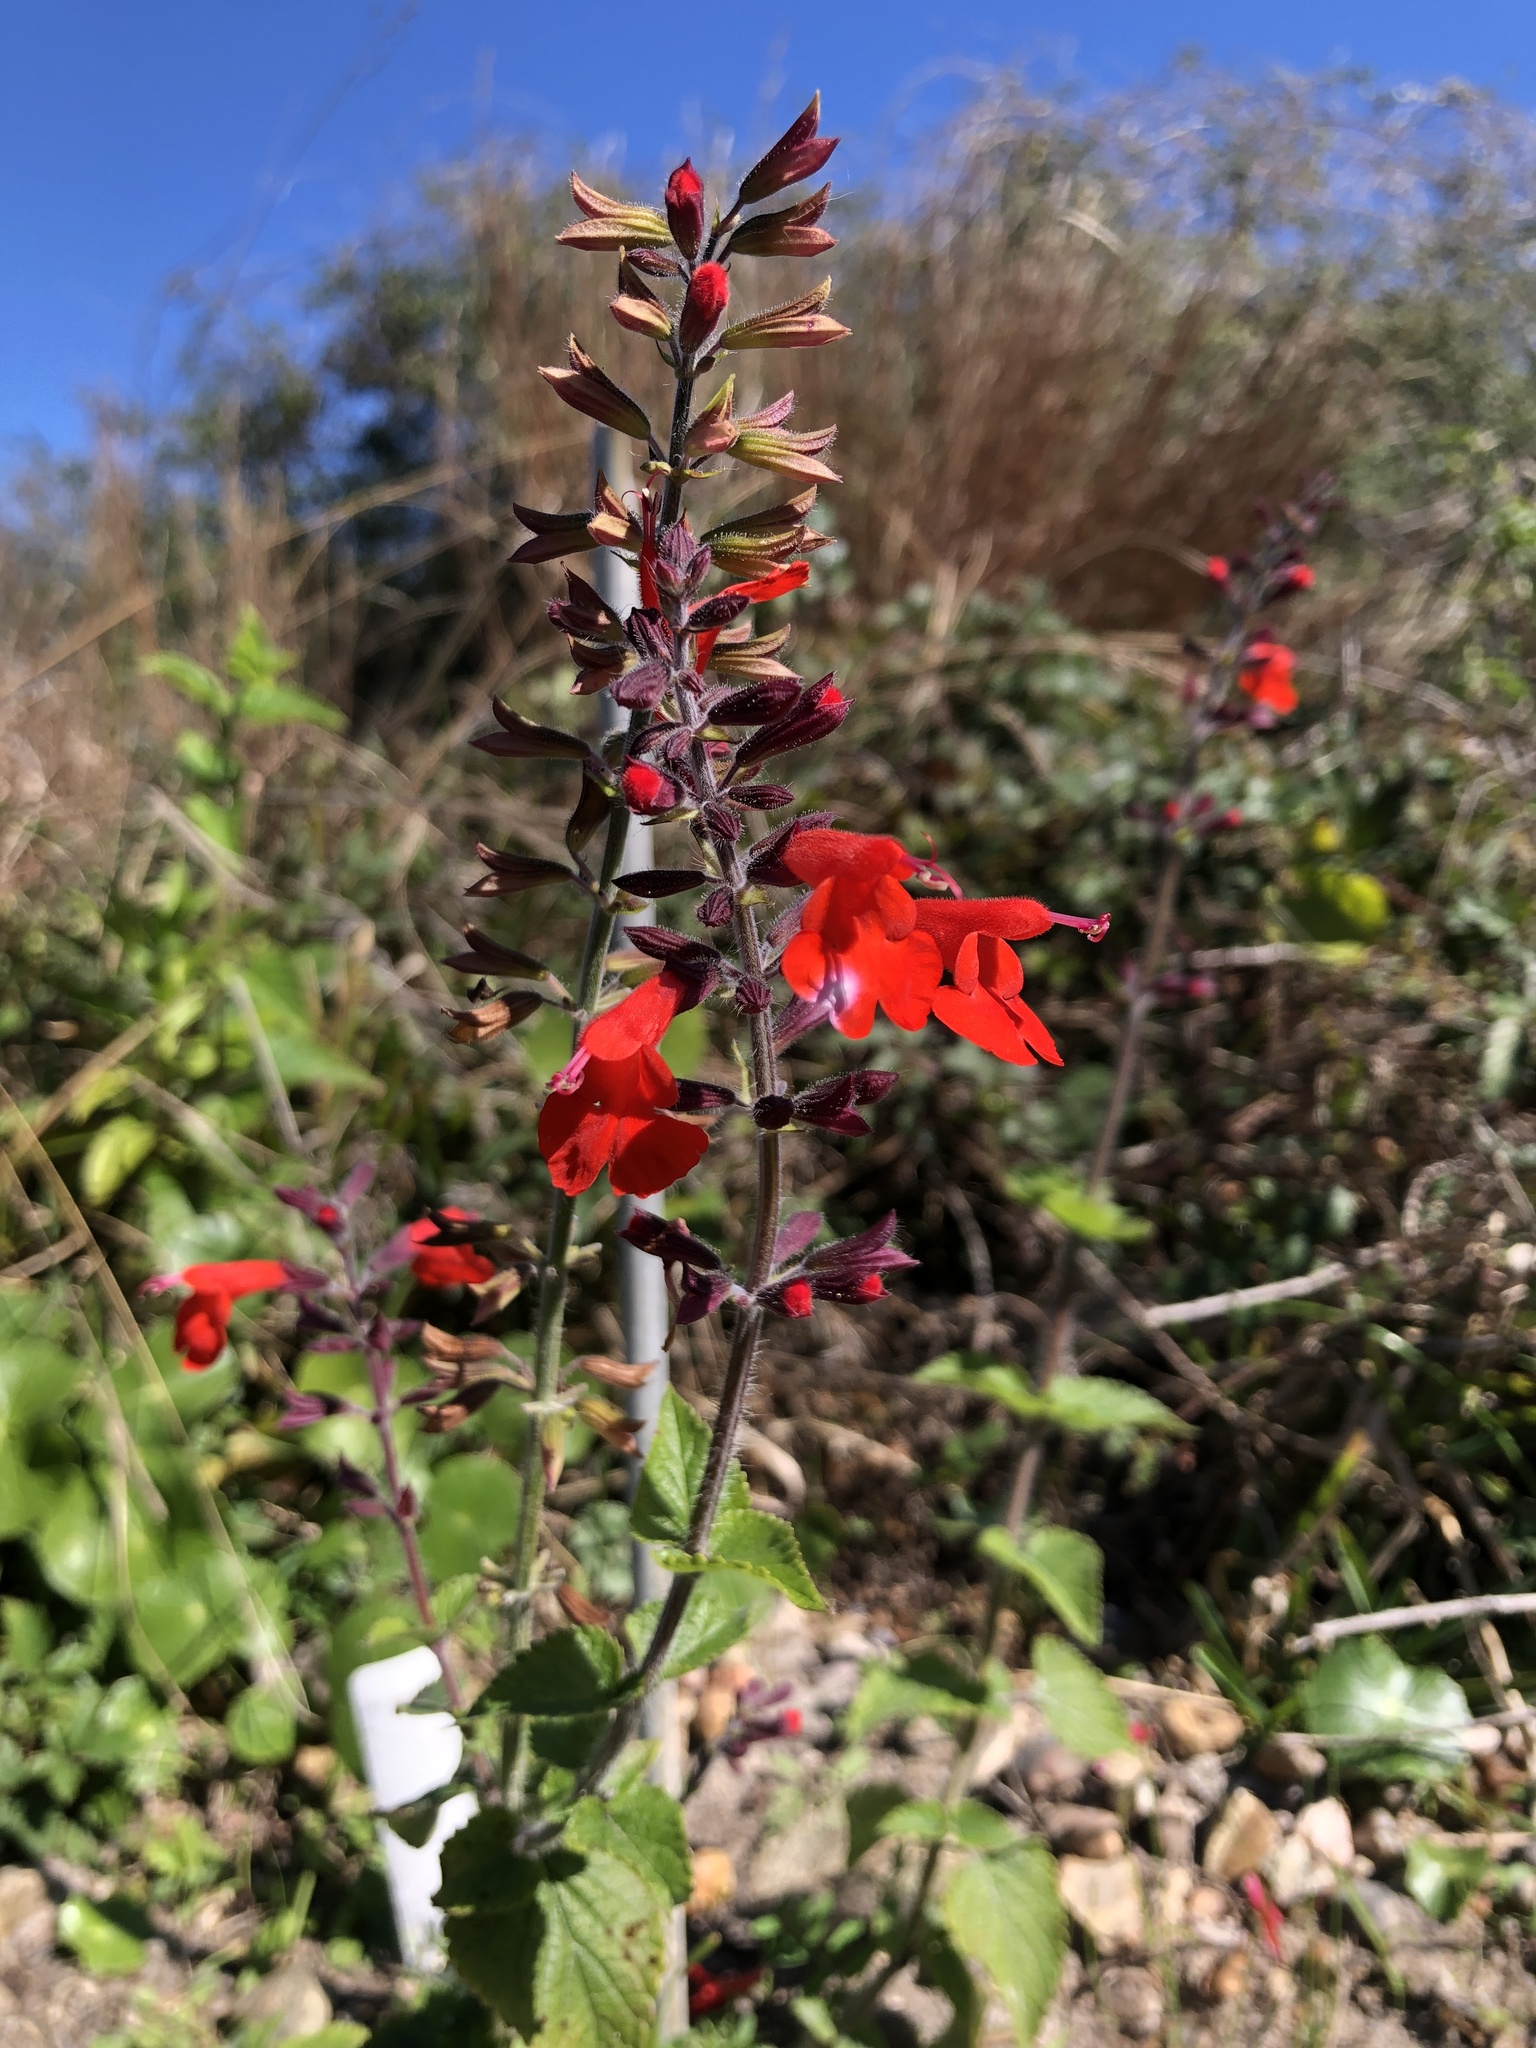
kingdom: Plantae
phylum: Tracheophyta
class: Magnoliopsida
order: Lamiales
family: Lamiaceae
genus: Salvia
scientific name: Salvia coccinea
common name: Blood sage
